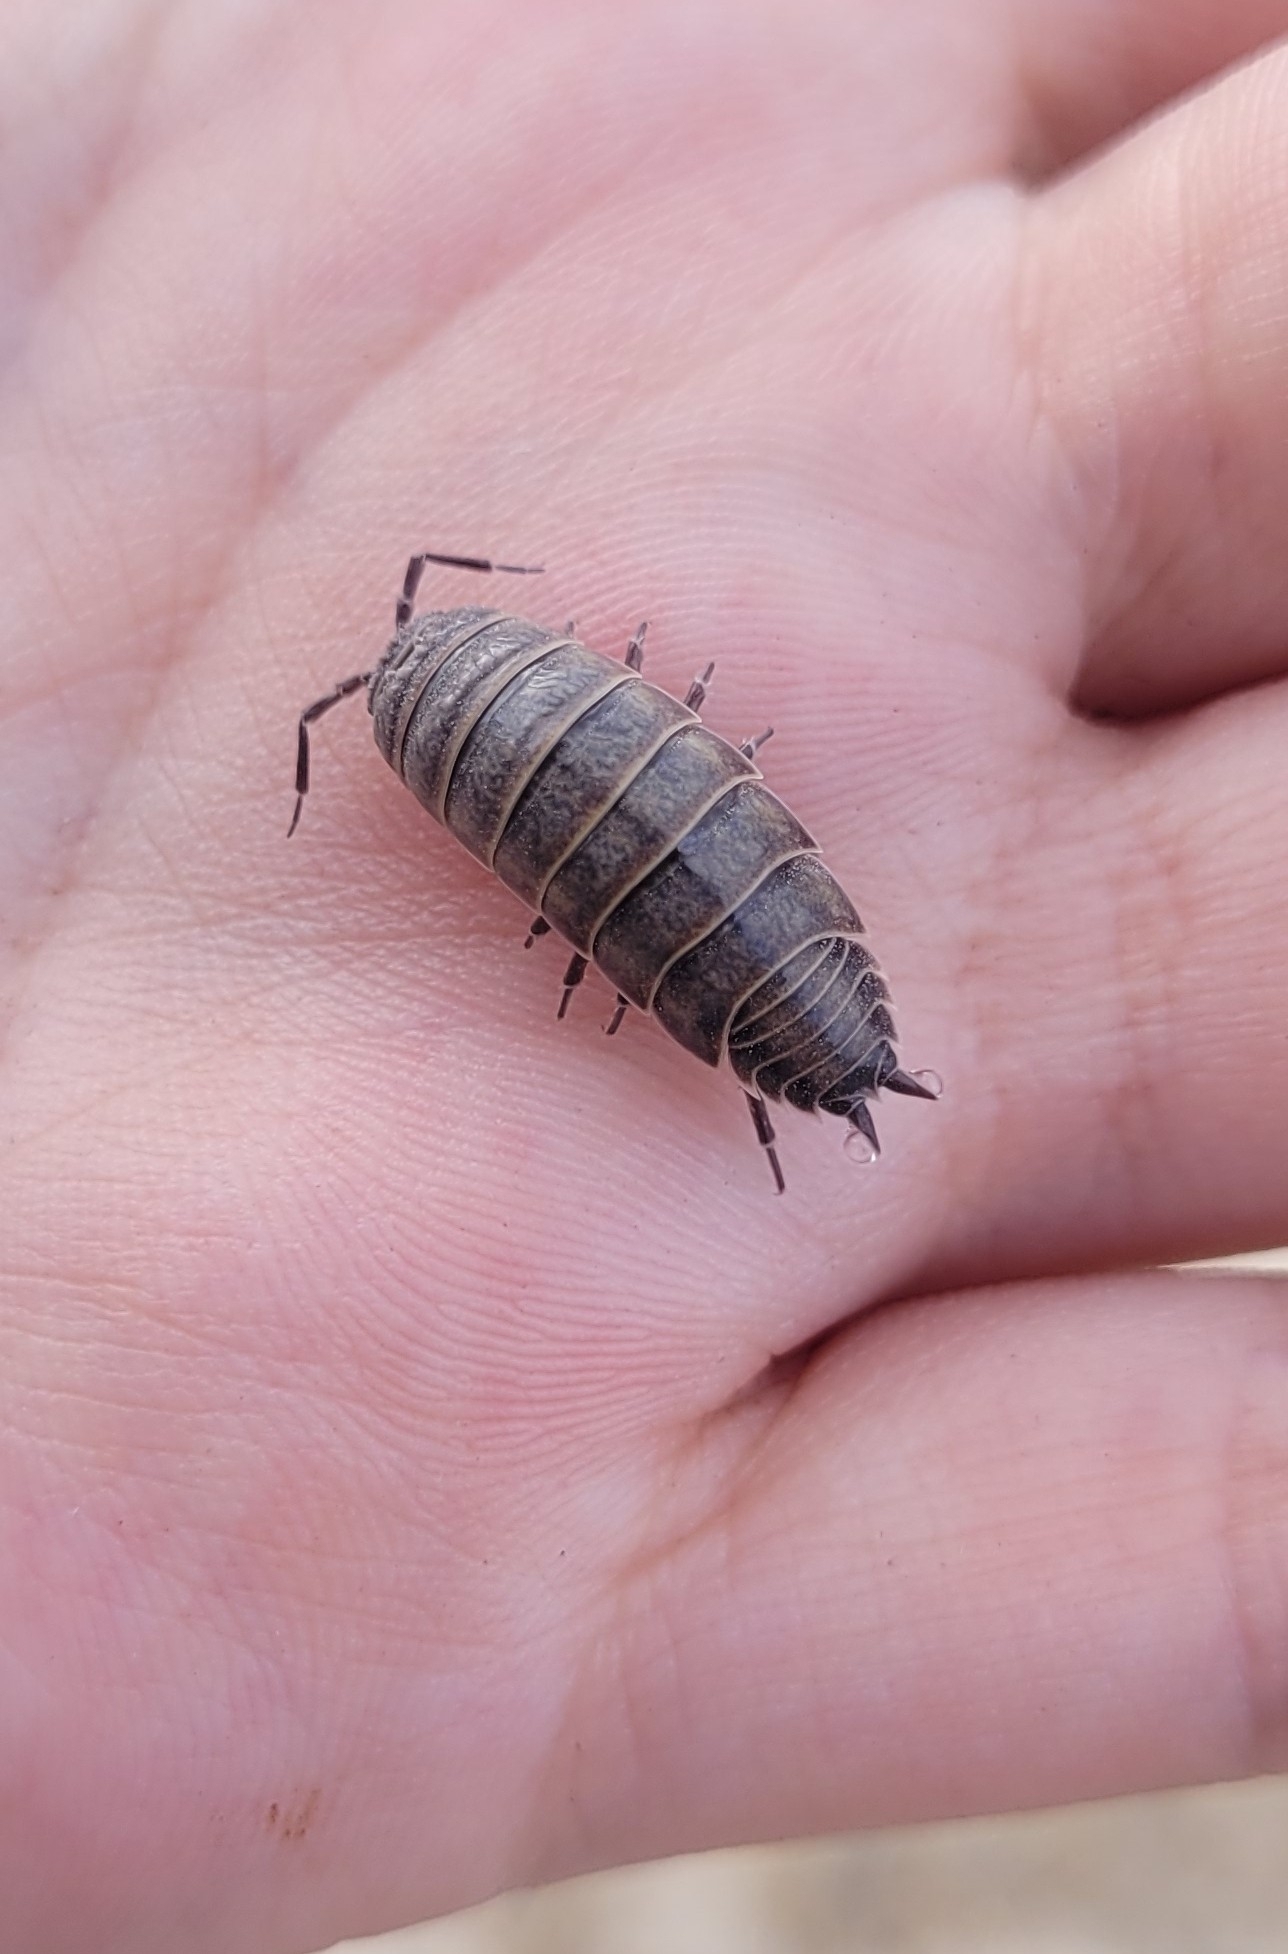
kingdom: Animalia
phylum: Arthropoda
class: Malacostraca
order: Isopoda
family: Agnaridae
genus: Hemilepistus
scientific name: Hemilepistus fedtschenkoi
